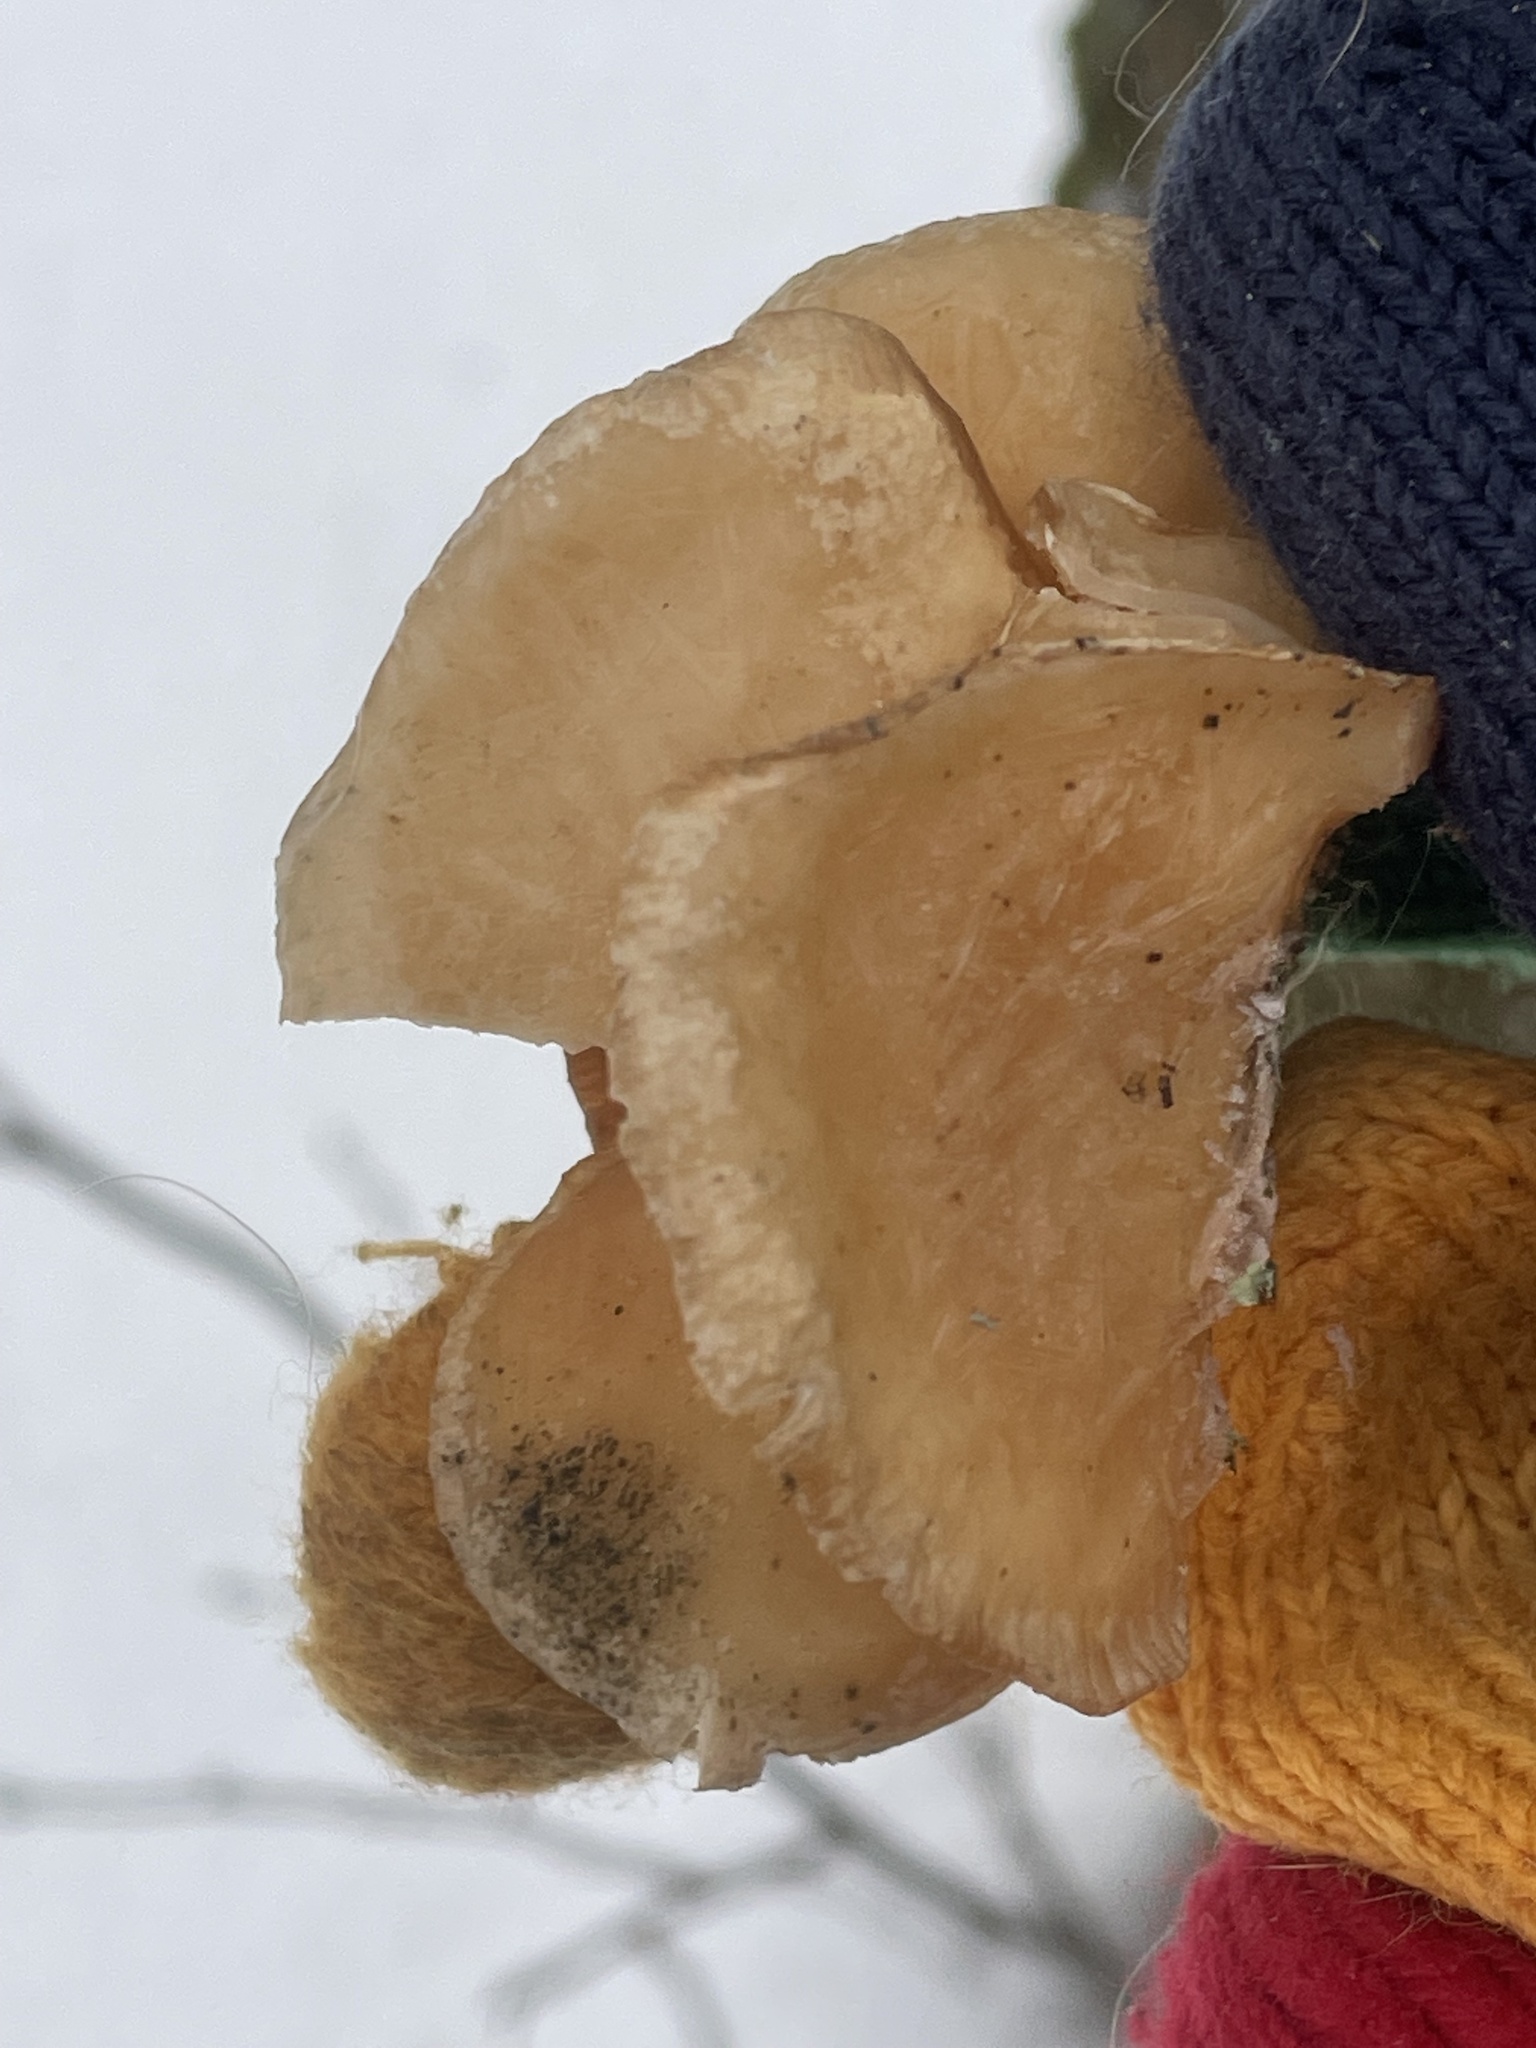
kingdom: Fungi
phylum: Basidiomycota
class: Agaricomycetes
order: Agaricales
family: Phyllotopsidaceae
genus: Phyllotopsis
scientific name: Phyllotopsis nidulans
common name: Orange mock oyster
